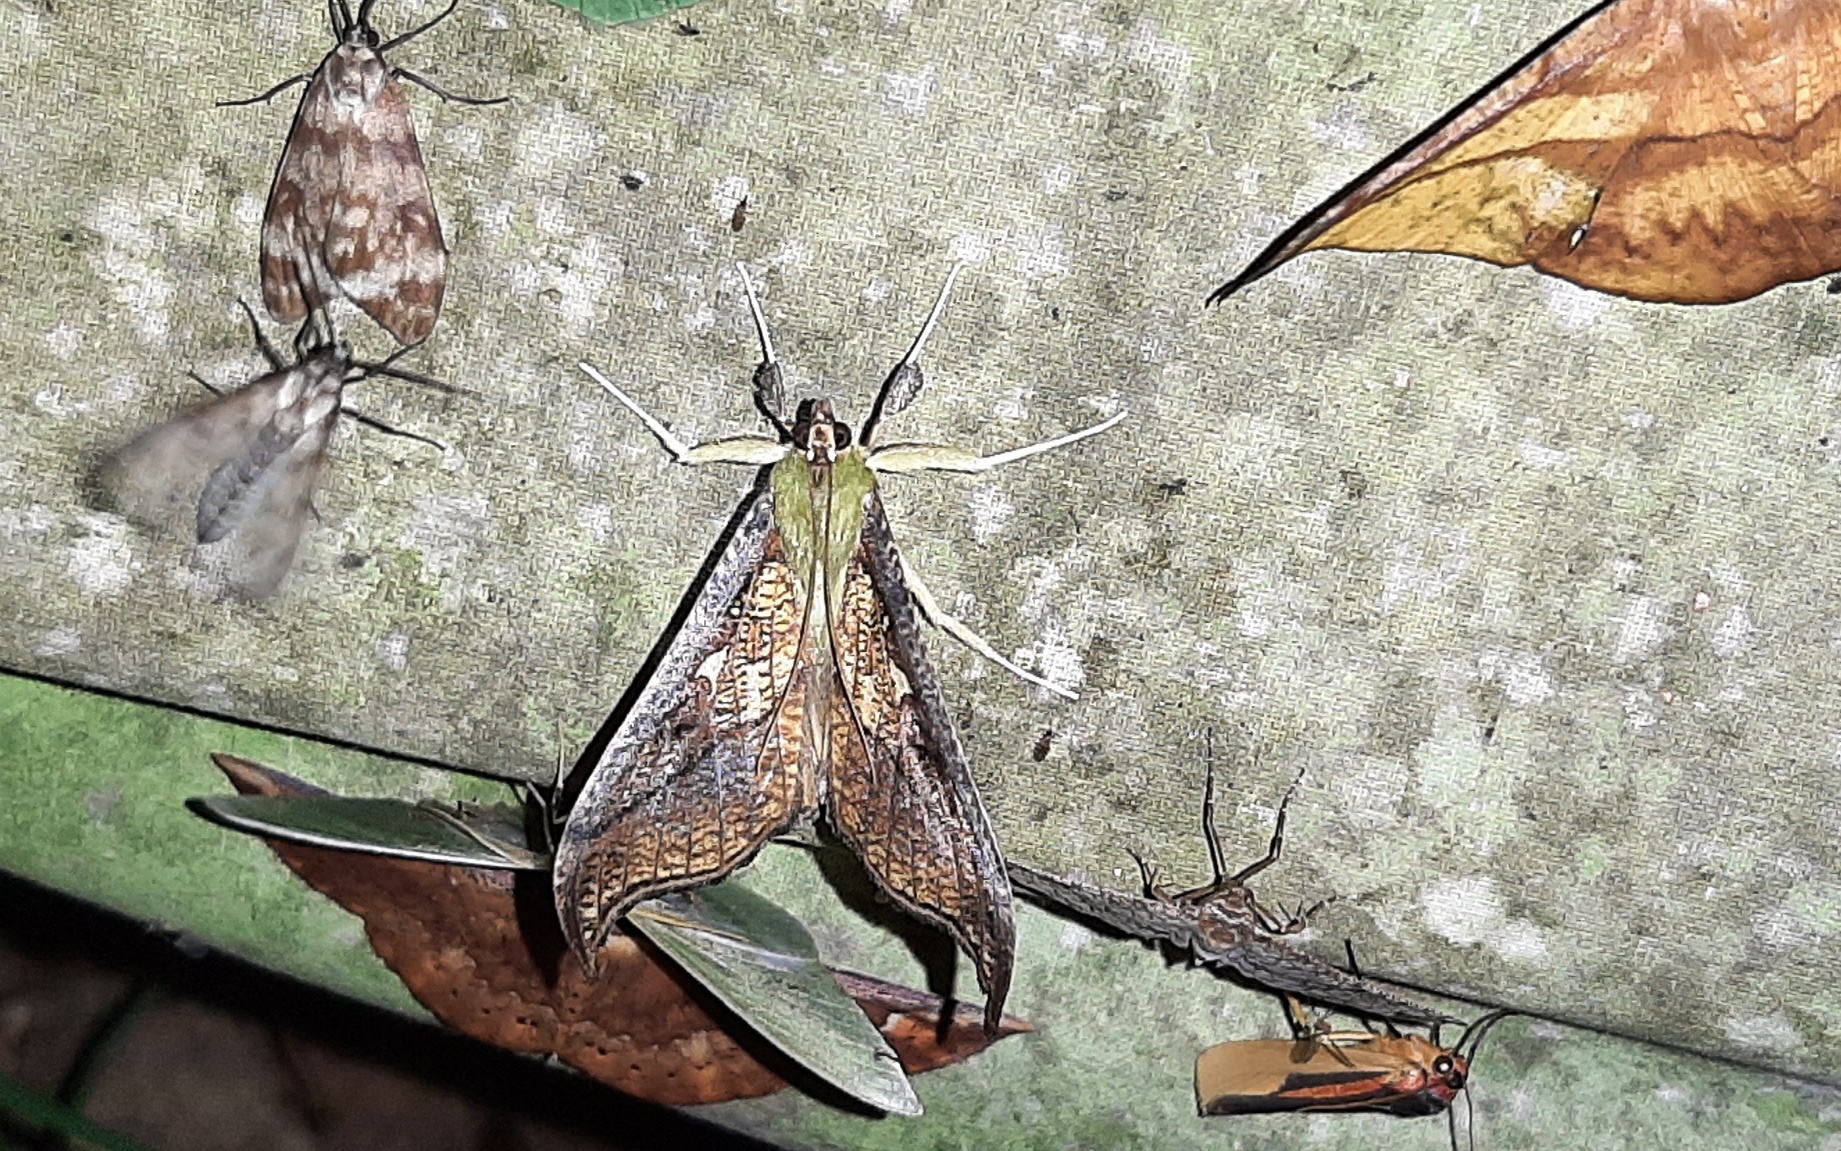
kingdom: Animalia
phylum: Arthropoda
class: Insecta
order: Lepidoptera
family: Crambidae
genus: Megaphysa
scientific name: Megaphysa herbiferalis
